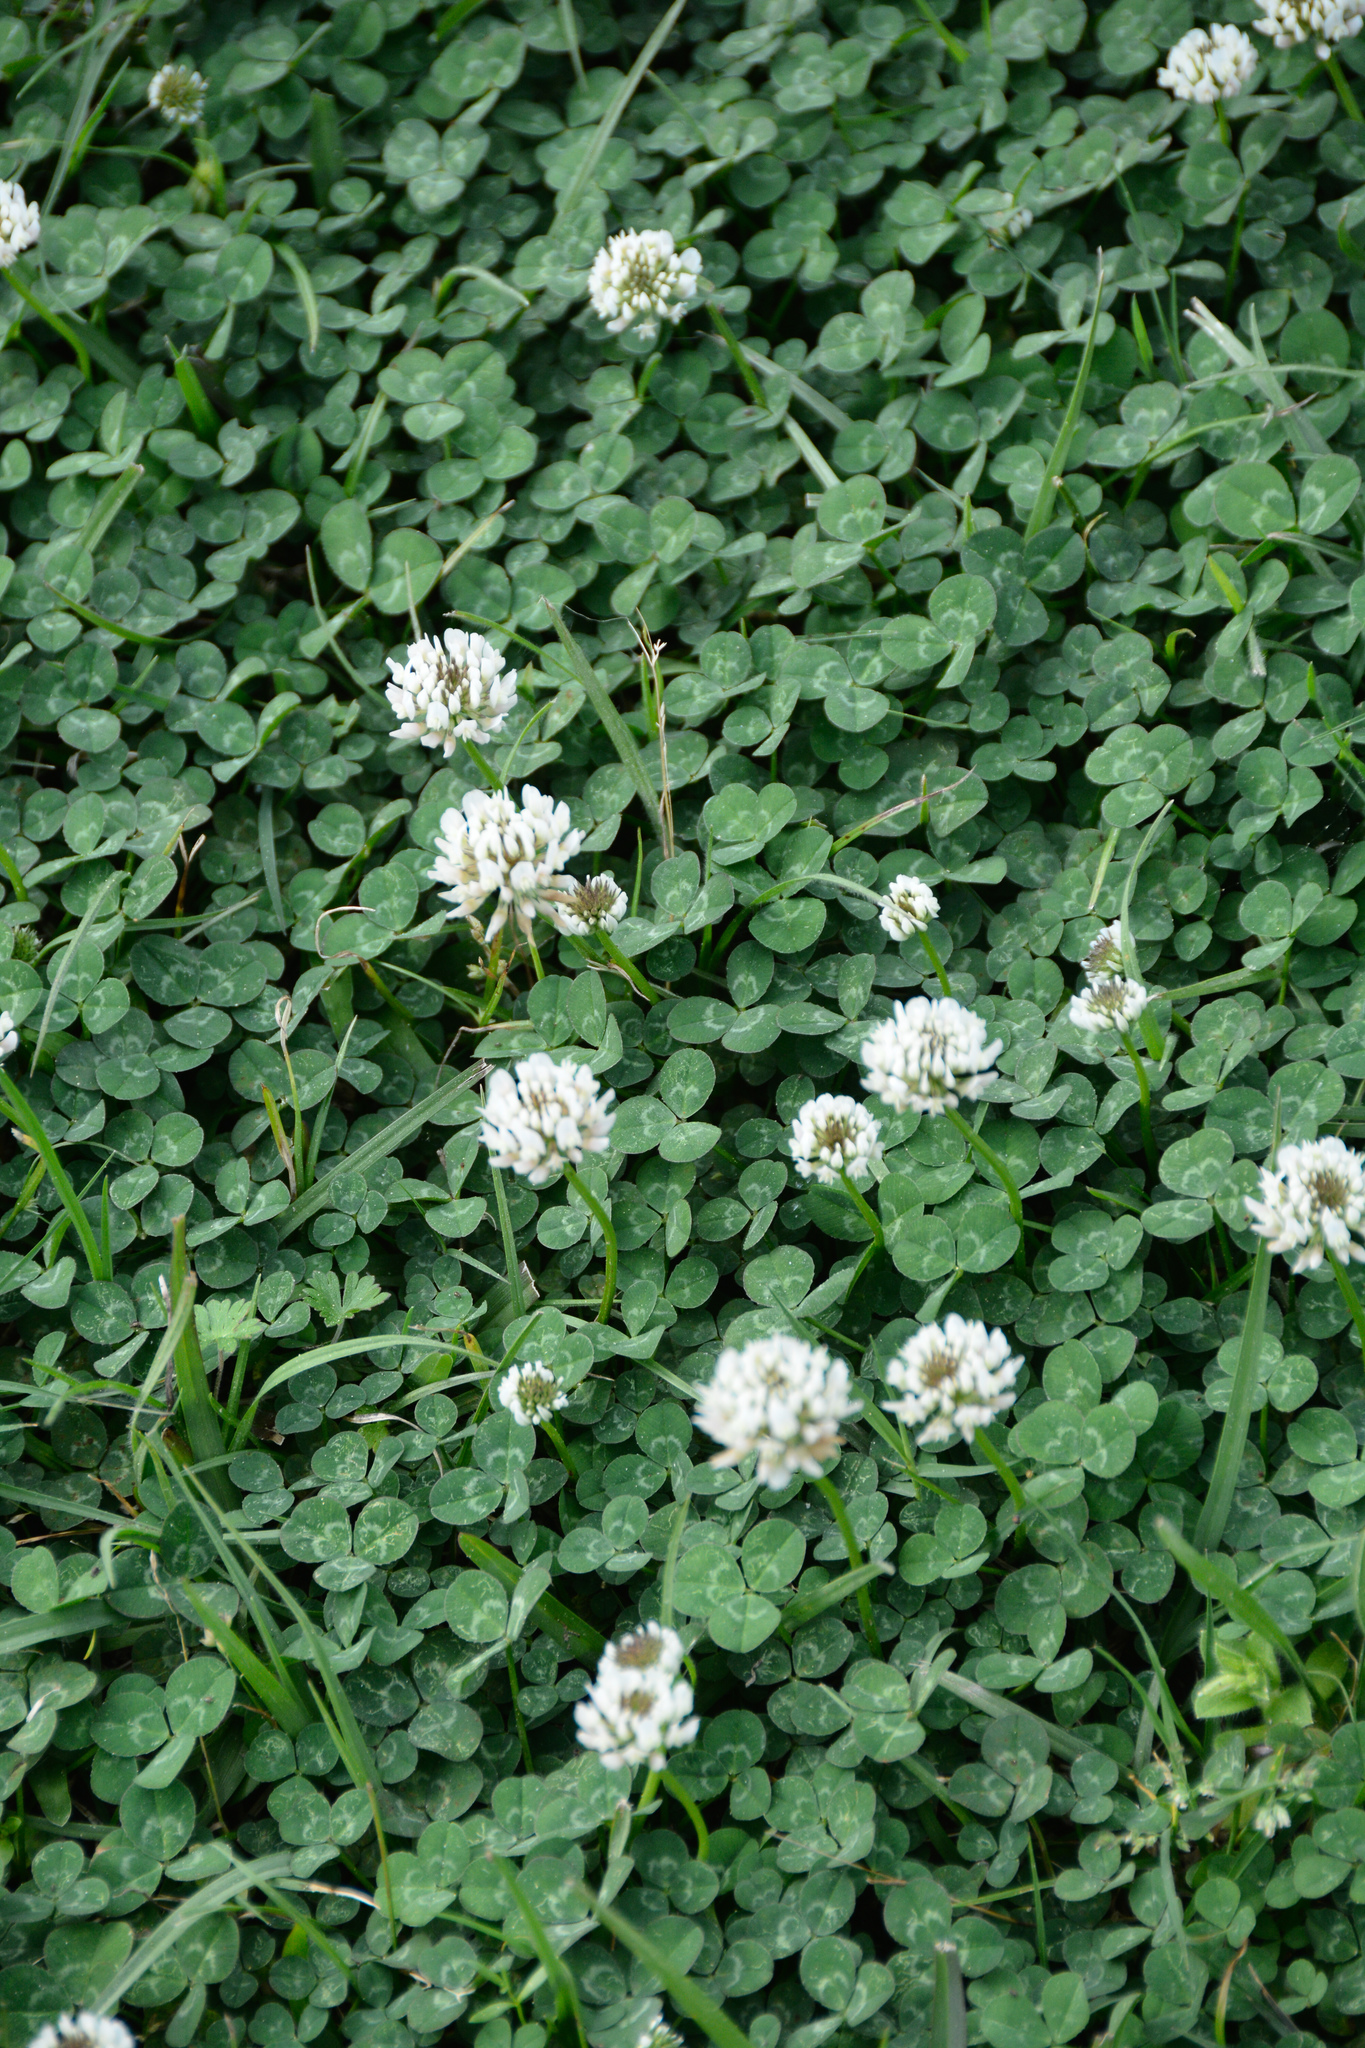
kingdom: Plantae
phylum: Tracheophyta
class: Magnoliopsida
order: Fabales
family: Fabaceae
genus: Trifolium
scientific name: Trifolium repens
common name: White clover
